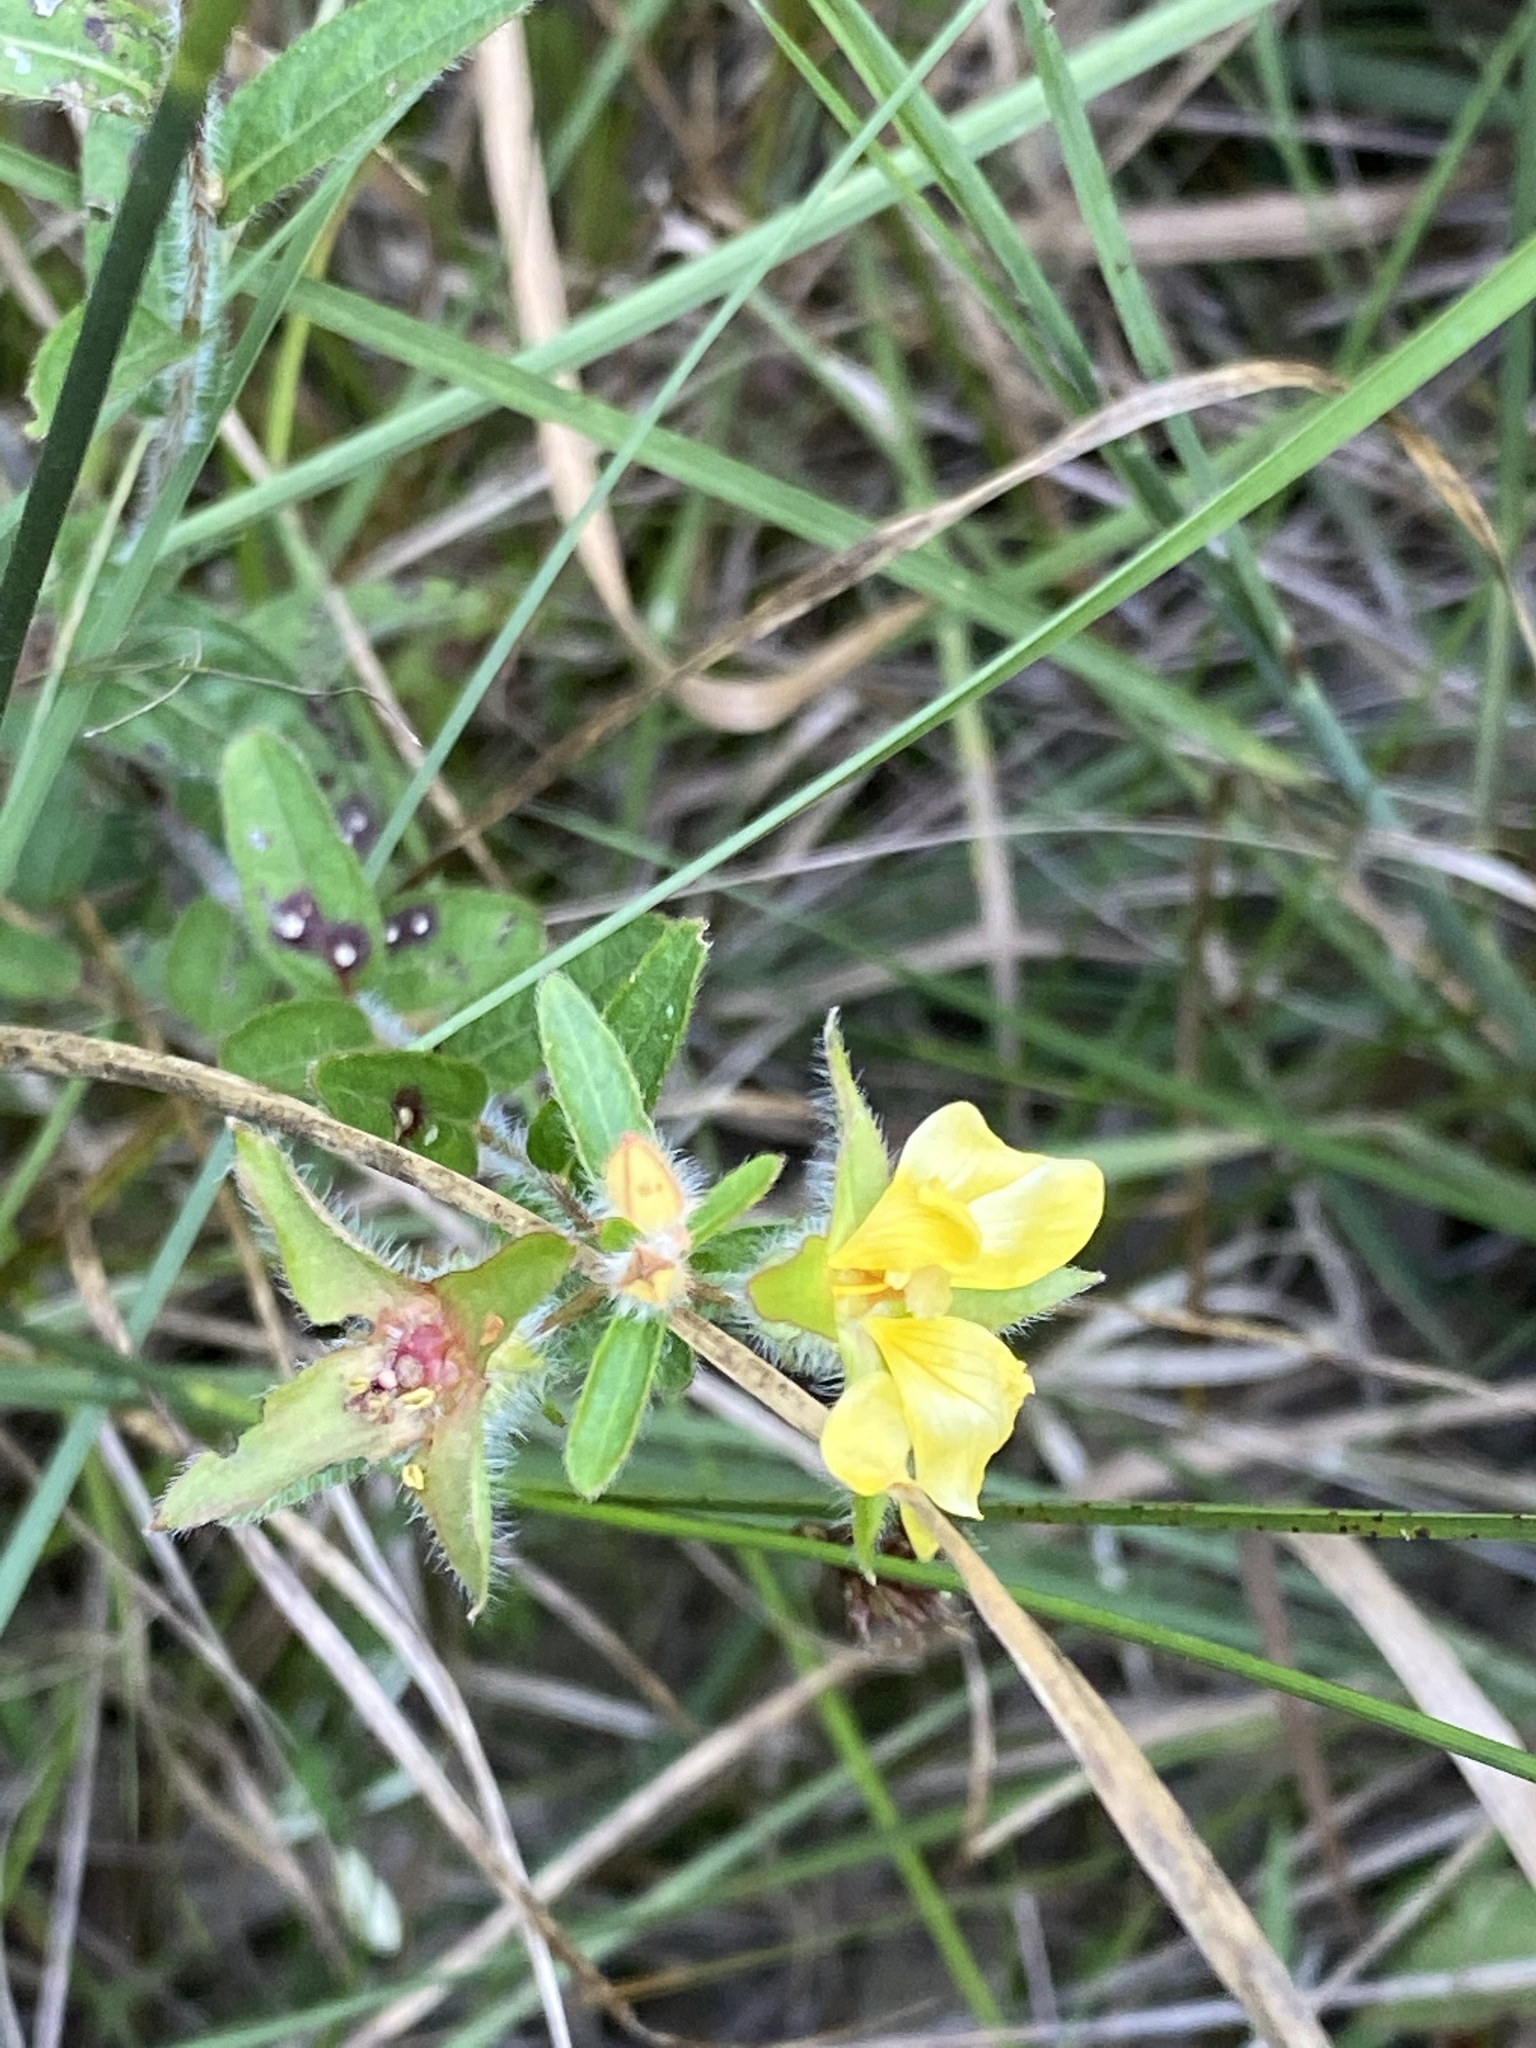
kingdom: Plantae
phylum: Tracheophyta
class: Magnoliopsida
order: Myrtales
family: Onagraceae
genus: Ludwigia
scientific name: Ludwigia hirtella
